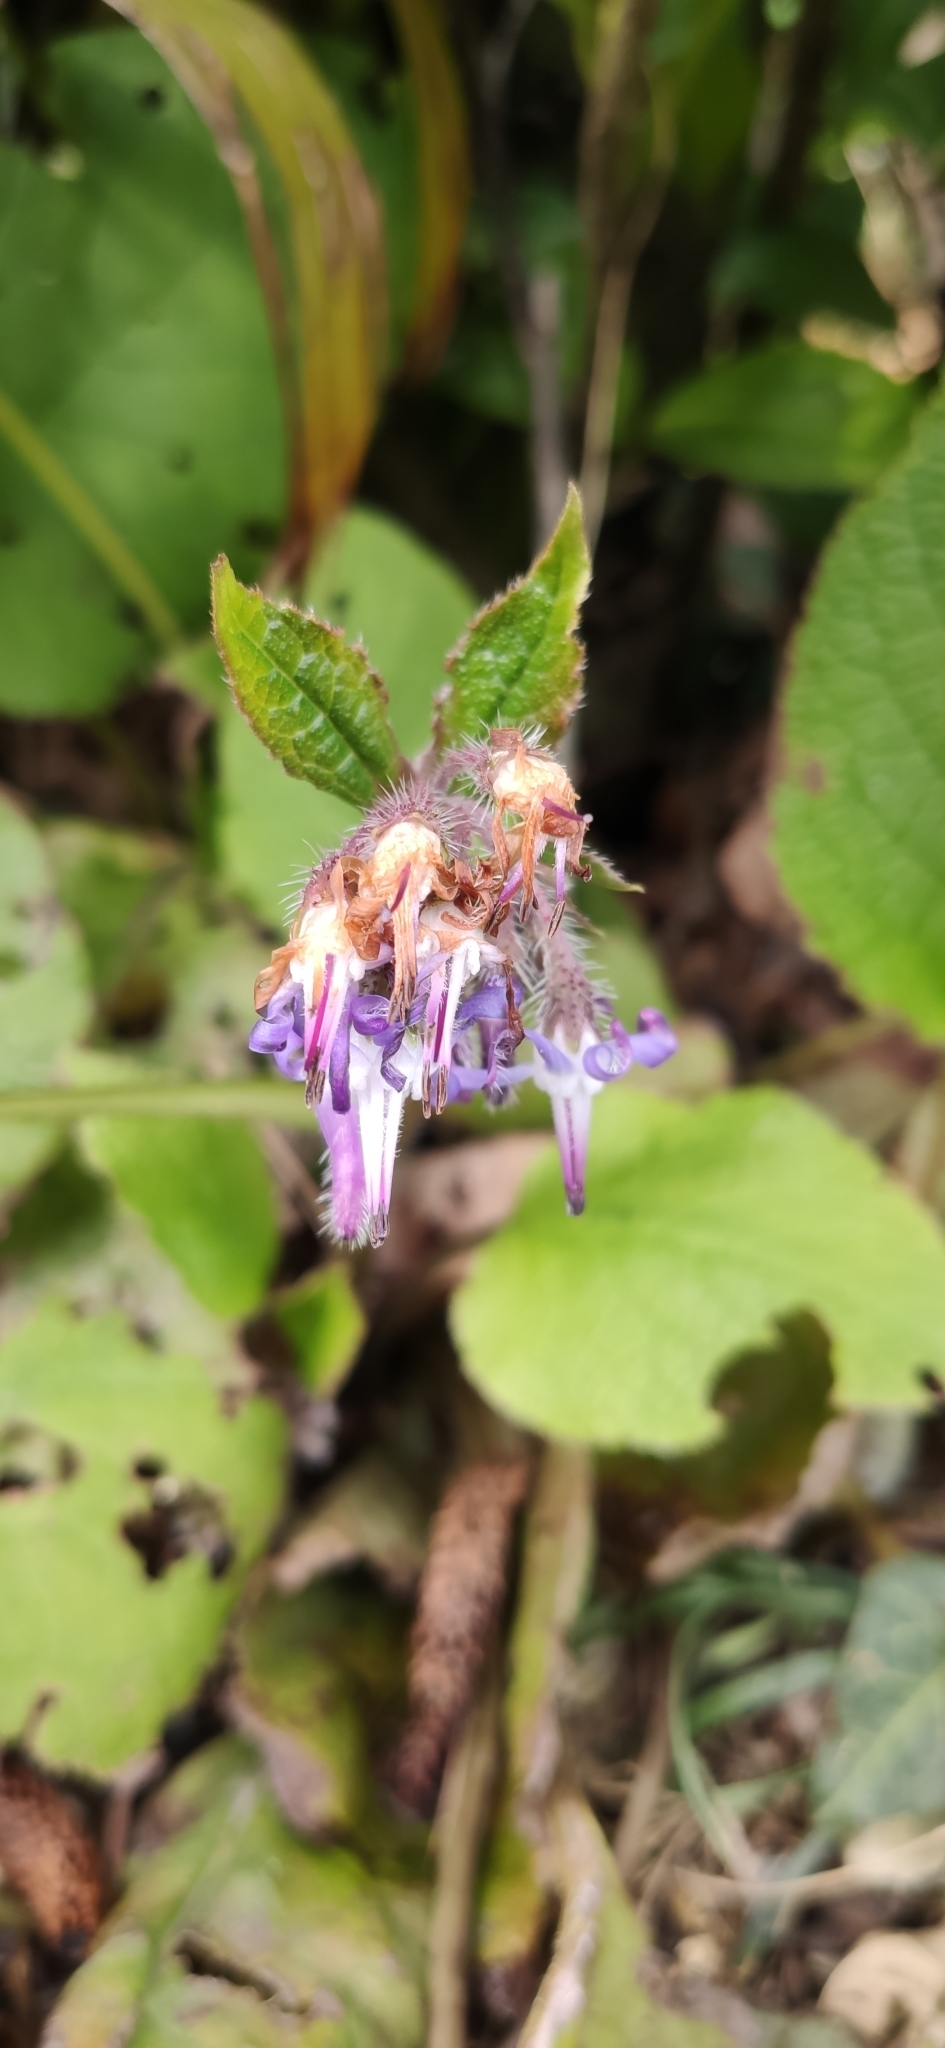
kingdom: Plantae
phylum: Tracheophyta
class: Magnoliopsida
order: Boraginales
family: Boraginaceae
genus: Trachystemon
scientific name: Trachystemon orientale
